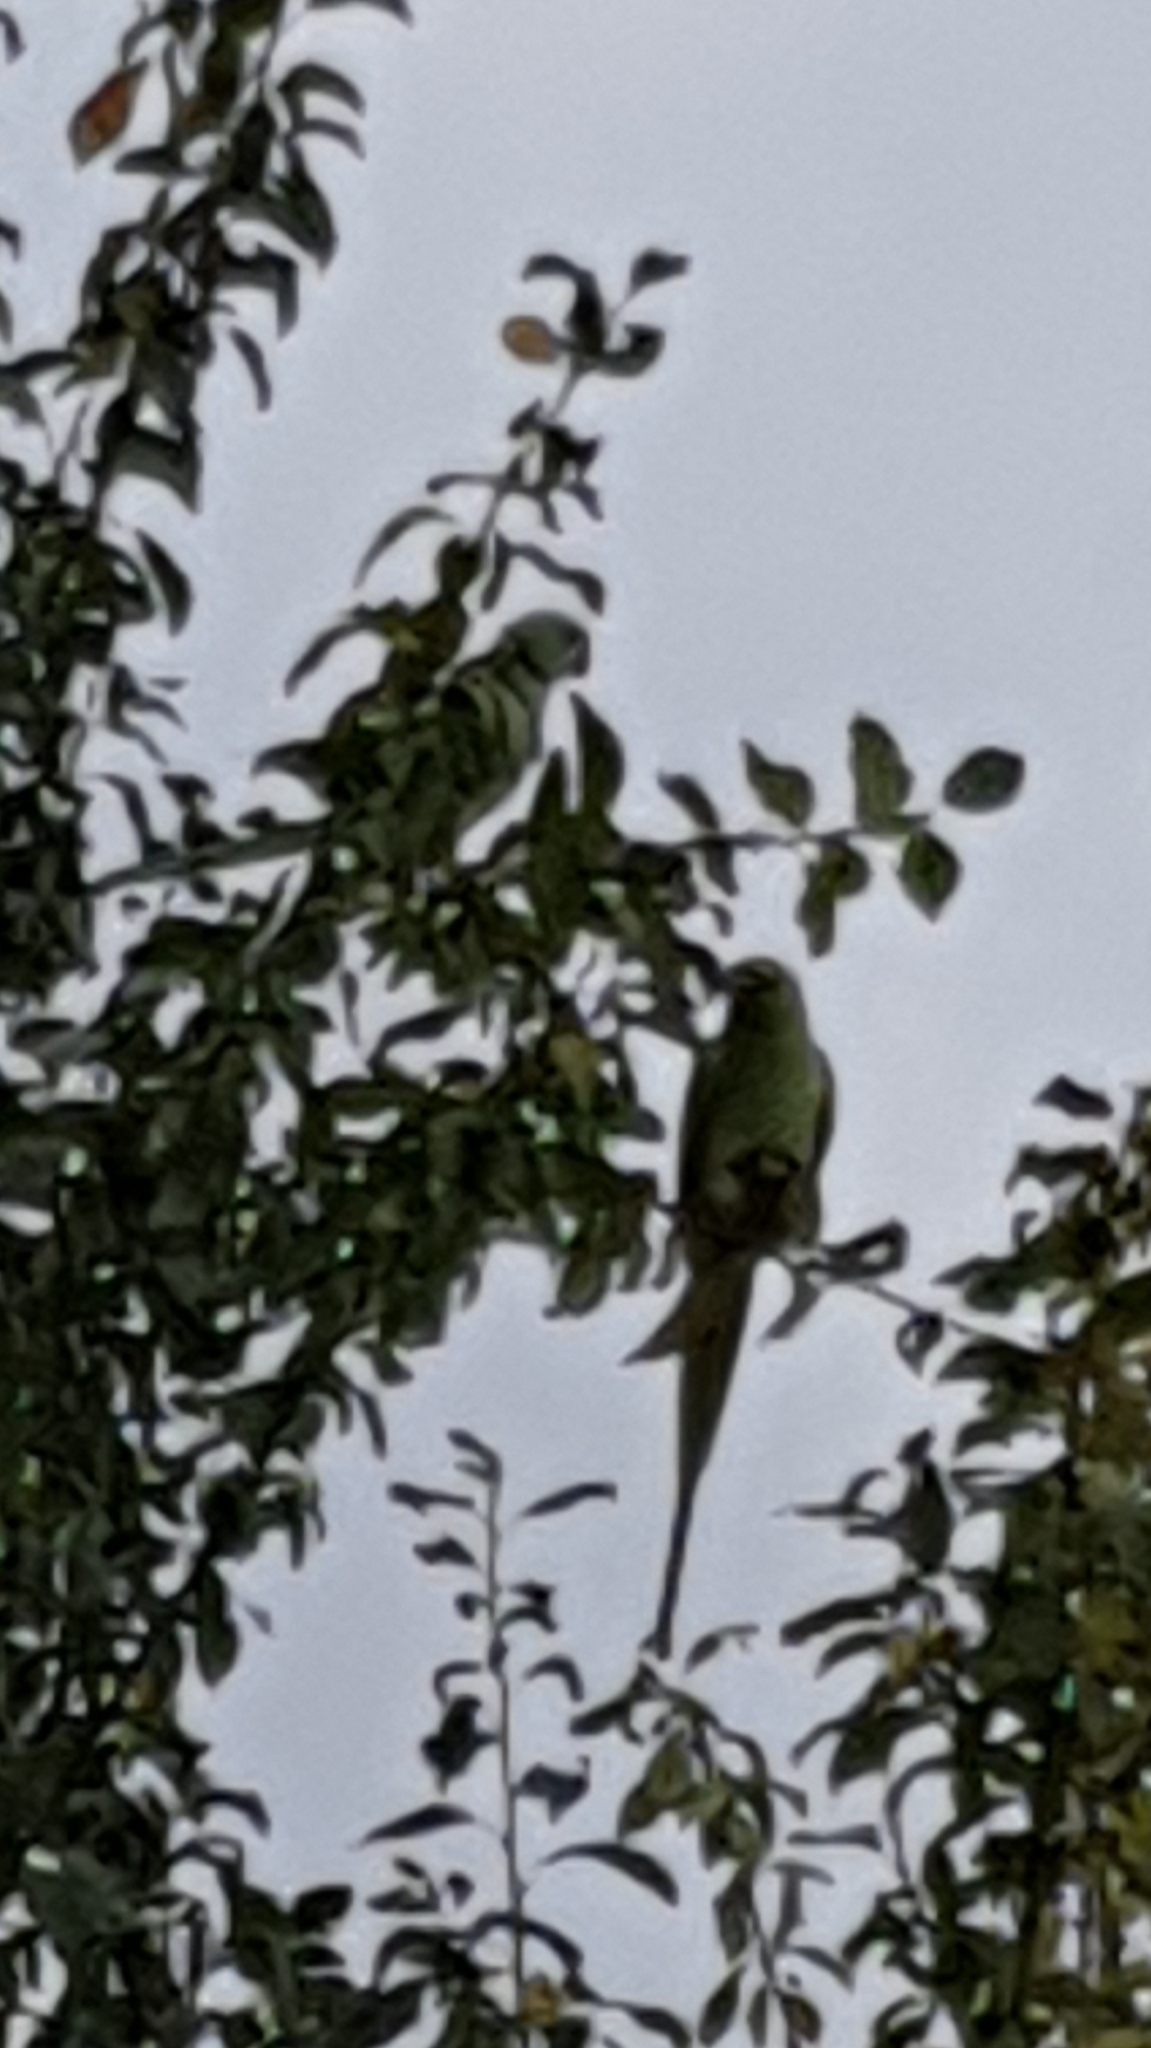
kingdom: Animalia
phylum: Chordata
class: Aves
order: Psittaciformes
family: Psittacidae
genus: Psittacula
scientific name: Psittacula krameri
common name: Rose-ringed parakeet
